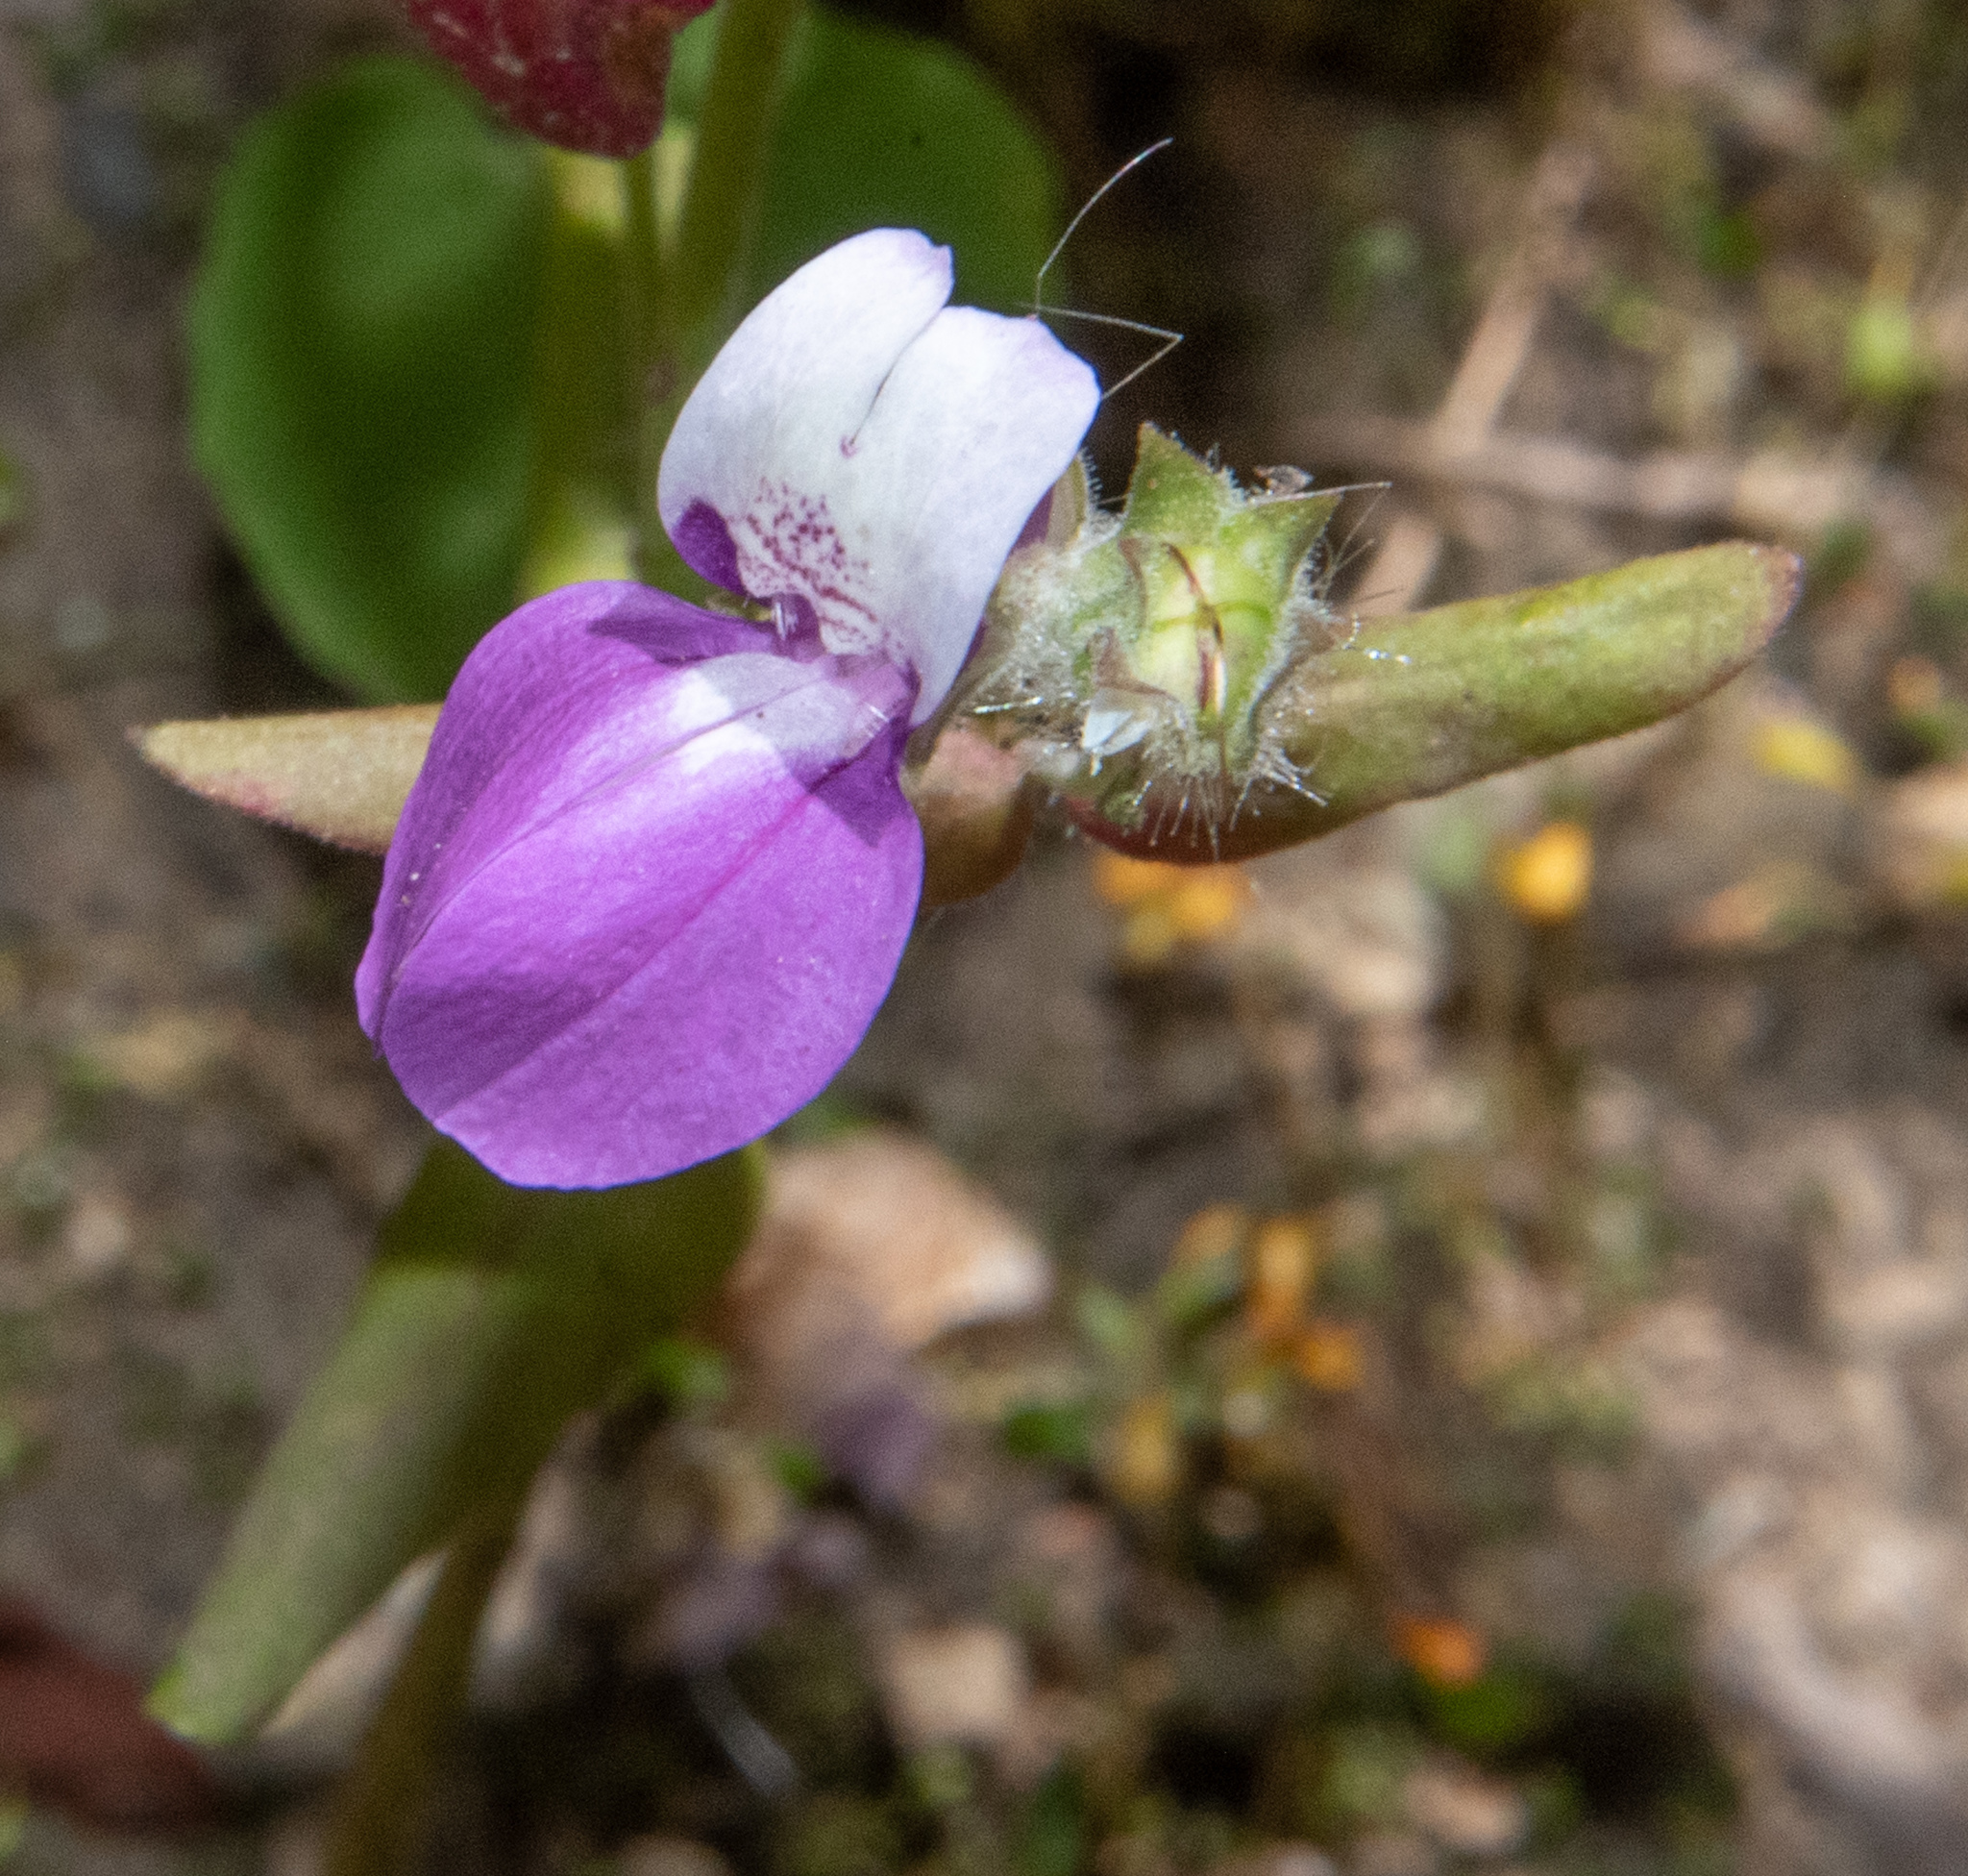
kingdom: Plantae
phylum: Tracheophyta
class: Magnoliopsida
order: Lamiales
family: Plantaginaceae
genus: Collinsia
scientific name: Collinsia heterophylla
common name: Chinese-houses
